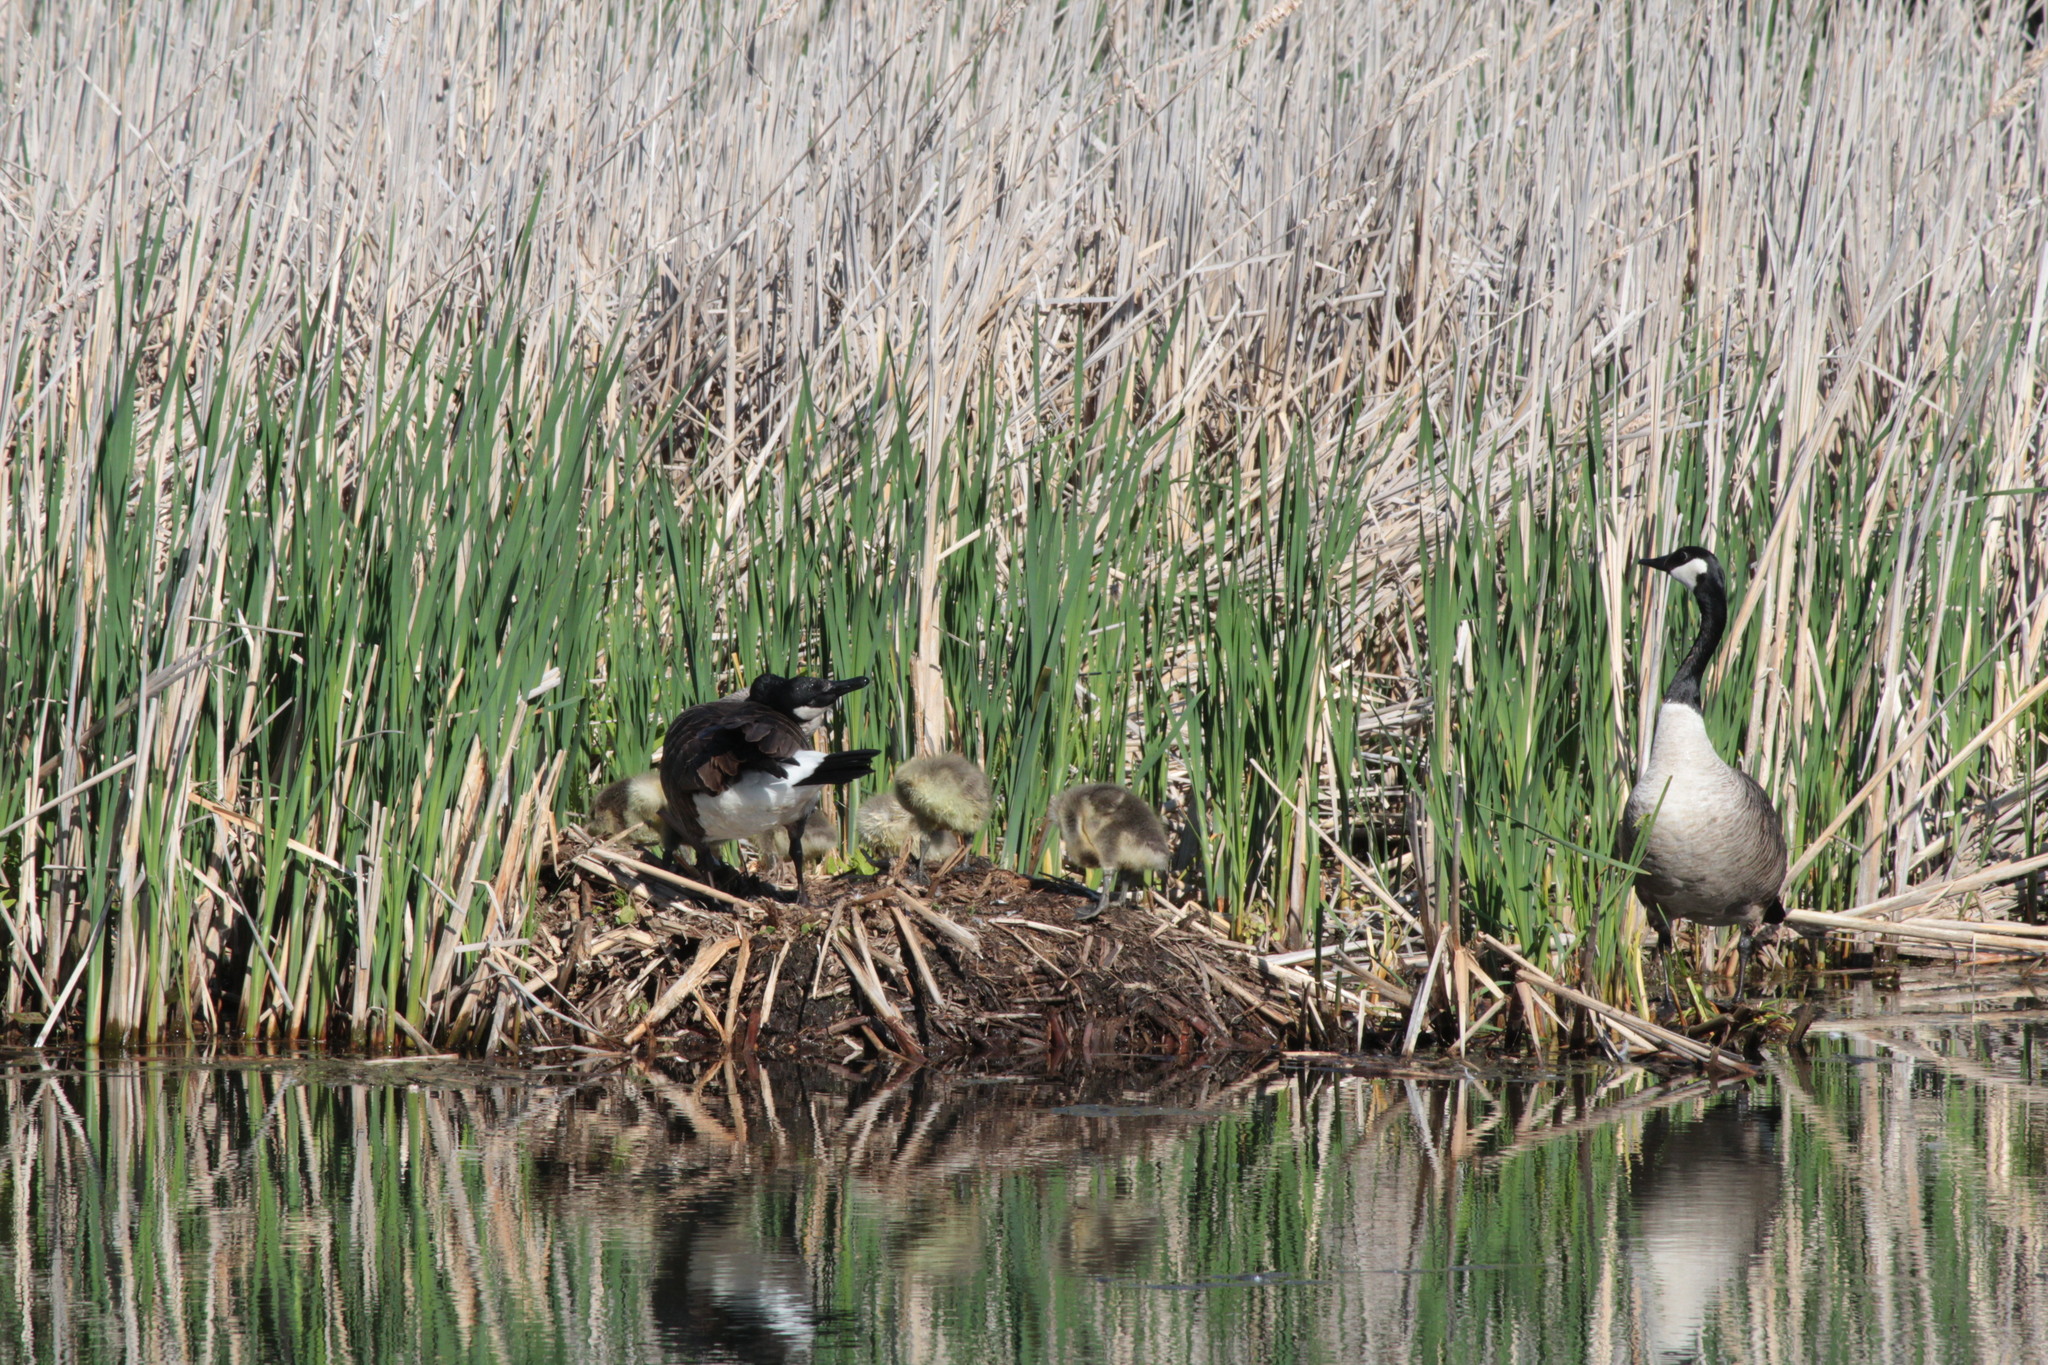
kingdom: Animalia
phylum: Chordata
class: Aves
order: Anseriformes
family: Anatidae
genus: Branta
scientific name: Branta canadensis
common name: Canada goose
